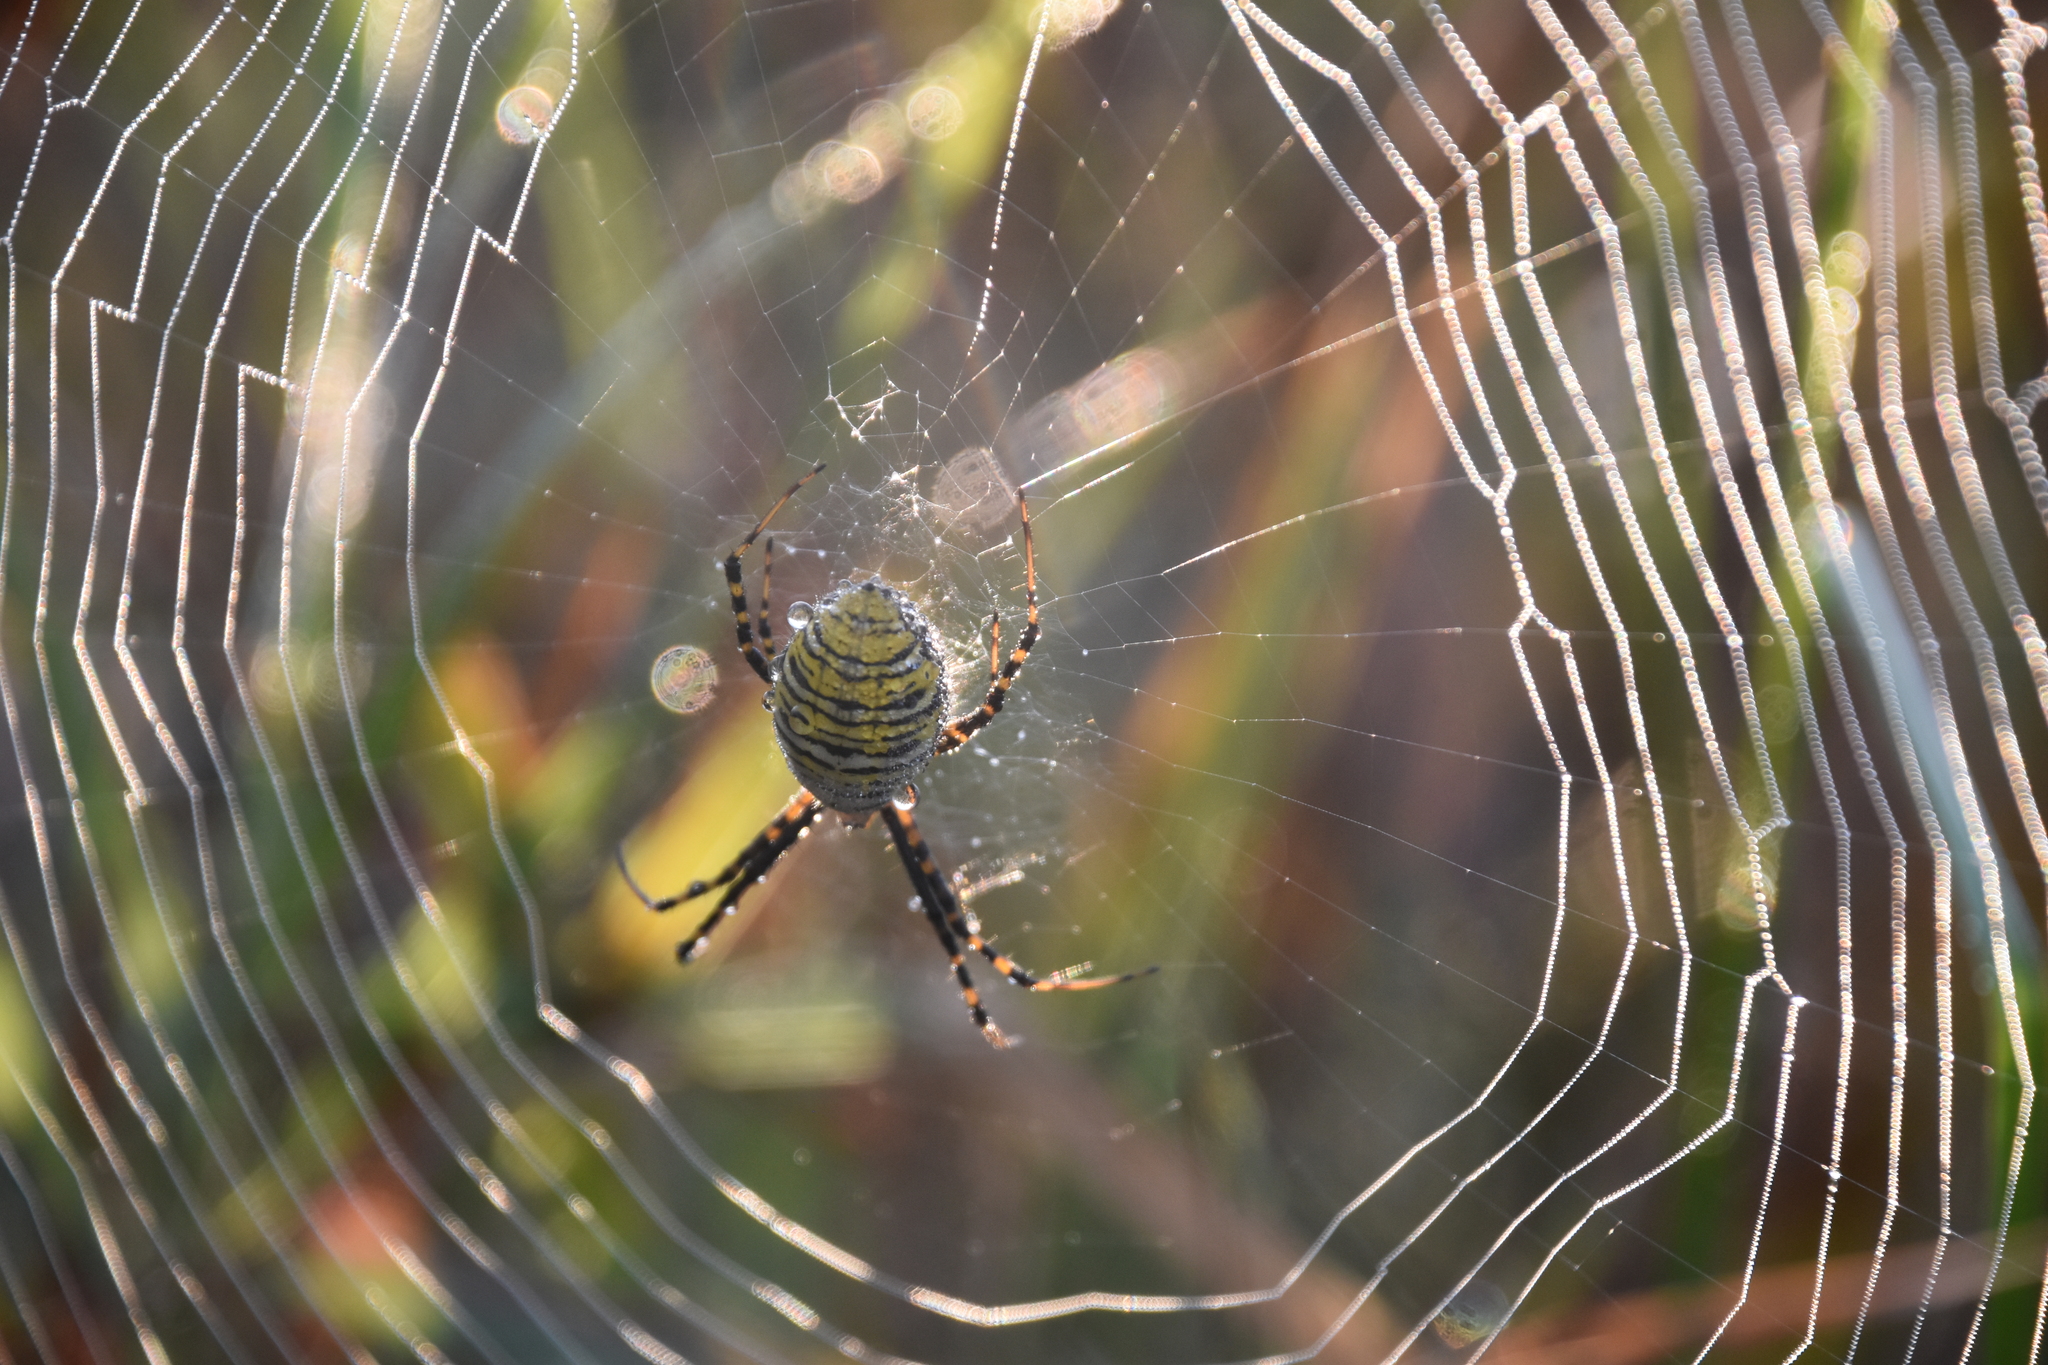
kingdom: Animalia
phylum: Arthropoda
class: Arachnida
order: Araneae
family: Araneidae
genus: Argiope
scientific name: Argiope trifasciata
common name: Banded garden spider
